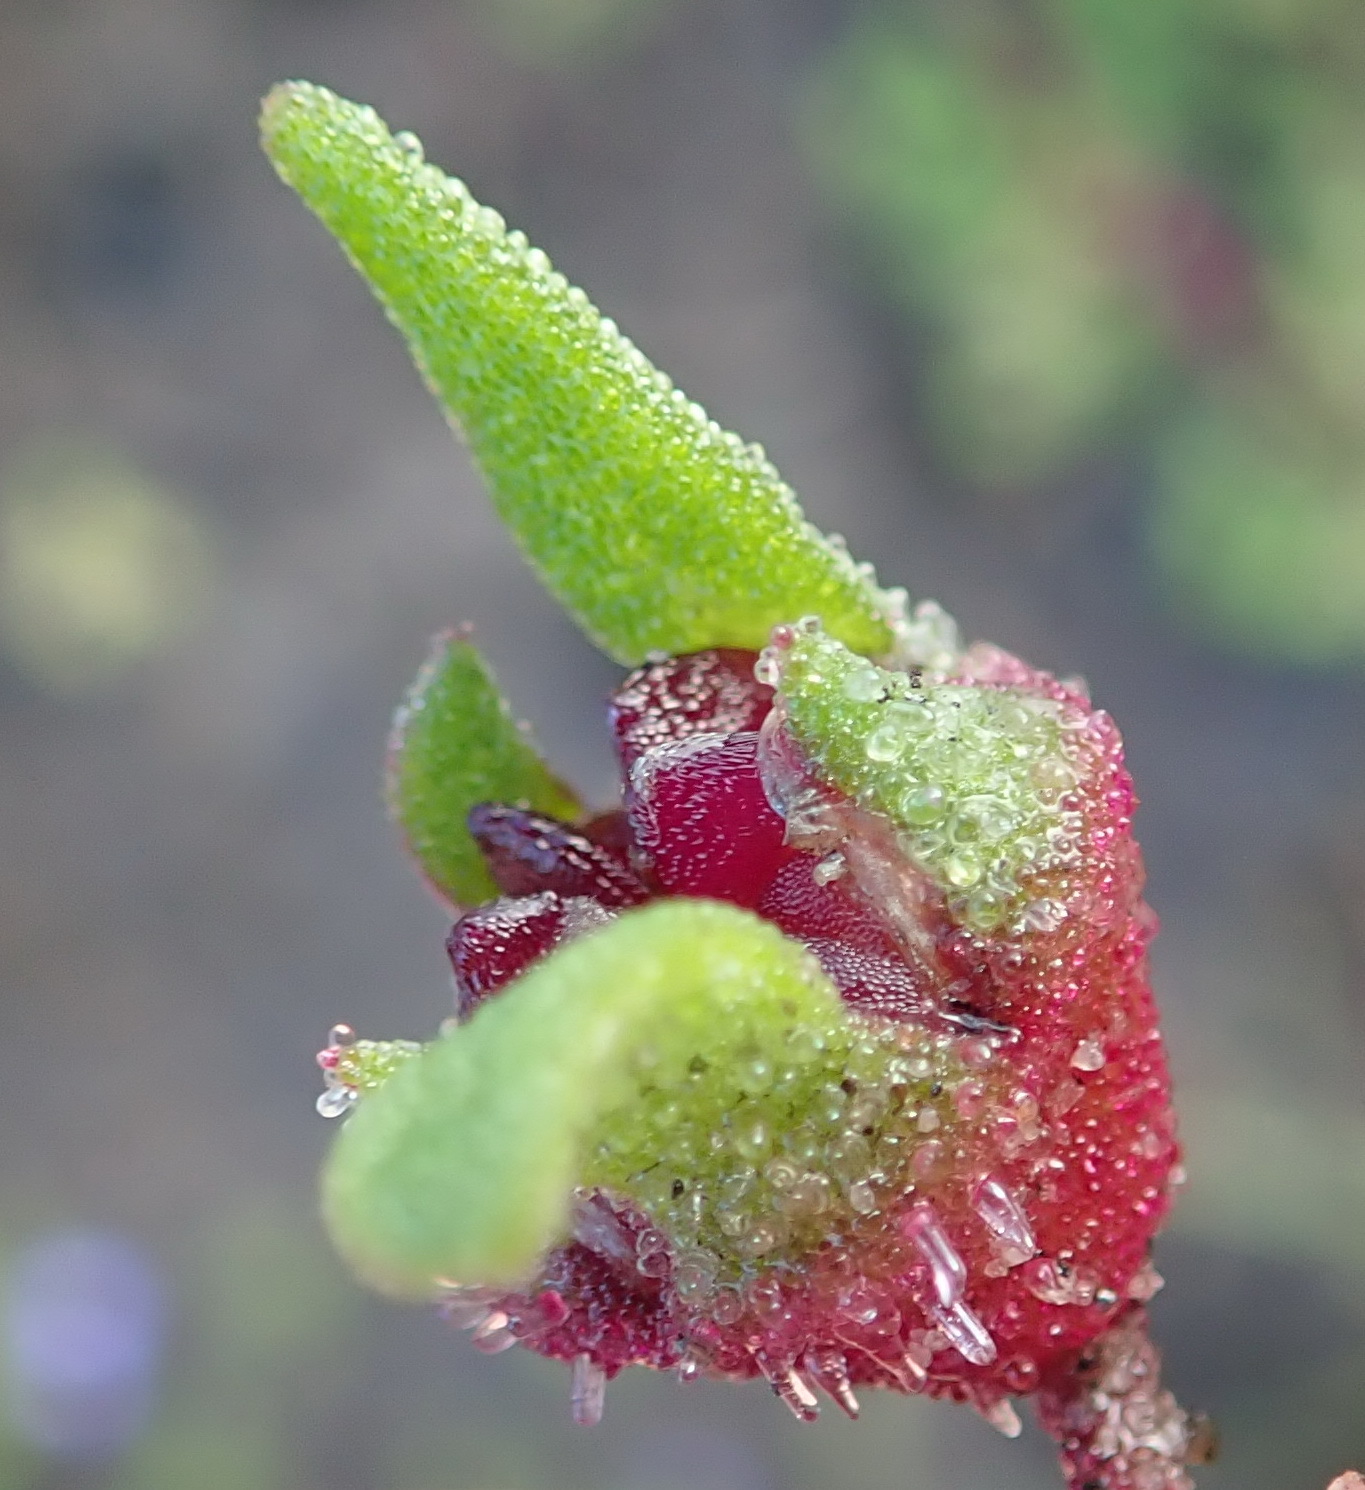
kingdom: Plantae
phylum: Tracheophyta
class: Magnoliopsida
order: Caryophyllales
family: Aizoaceae
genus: Cleretum
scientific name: Cleretum herrei
